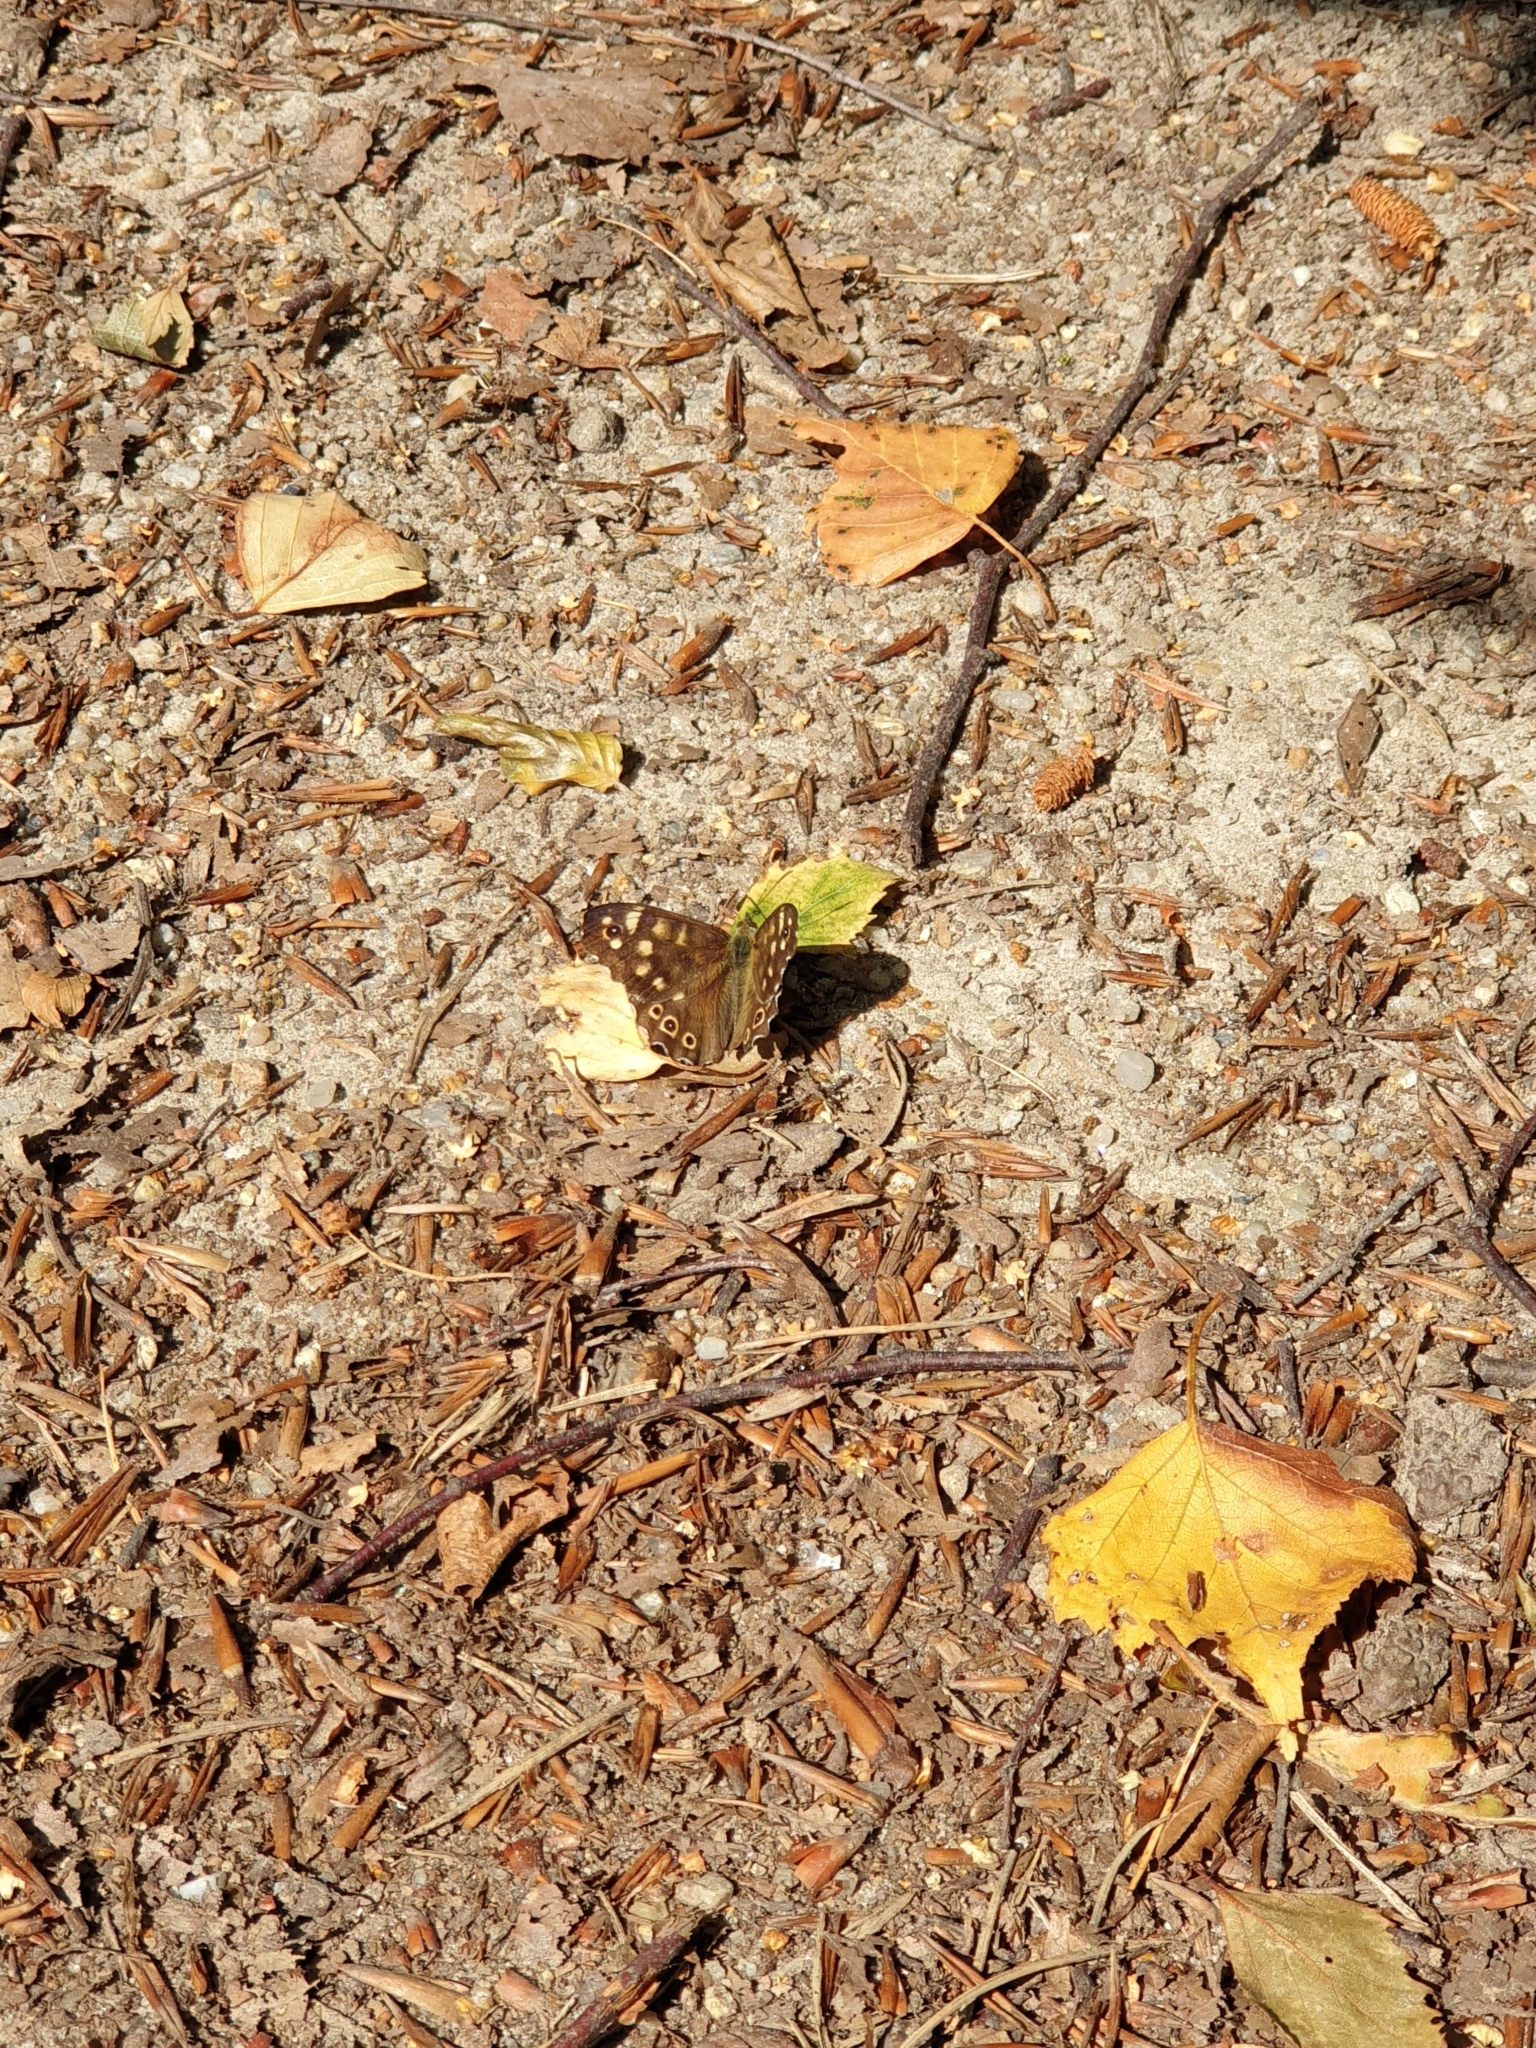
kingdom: Animalia
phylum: Arthropoda
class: Insecta
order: Lepidoptera
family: Nymphalidae
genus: Pararge
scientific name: Pararge aegeria
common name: Speckled wood
